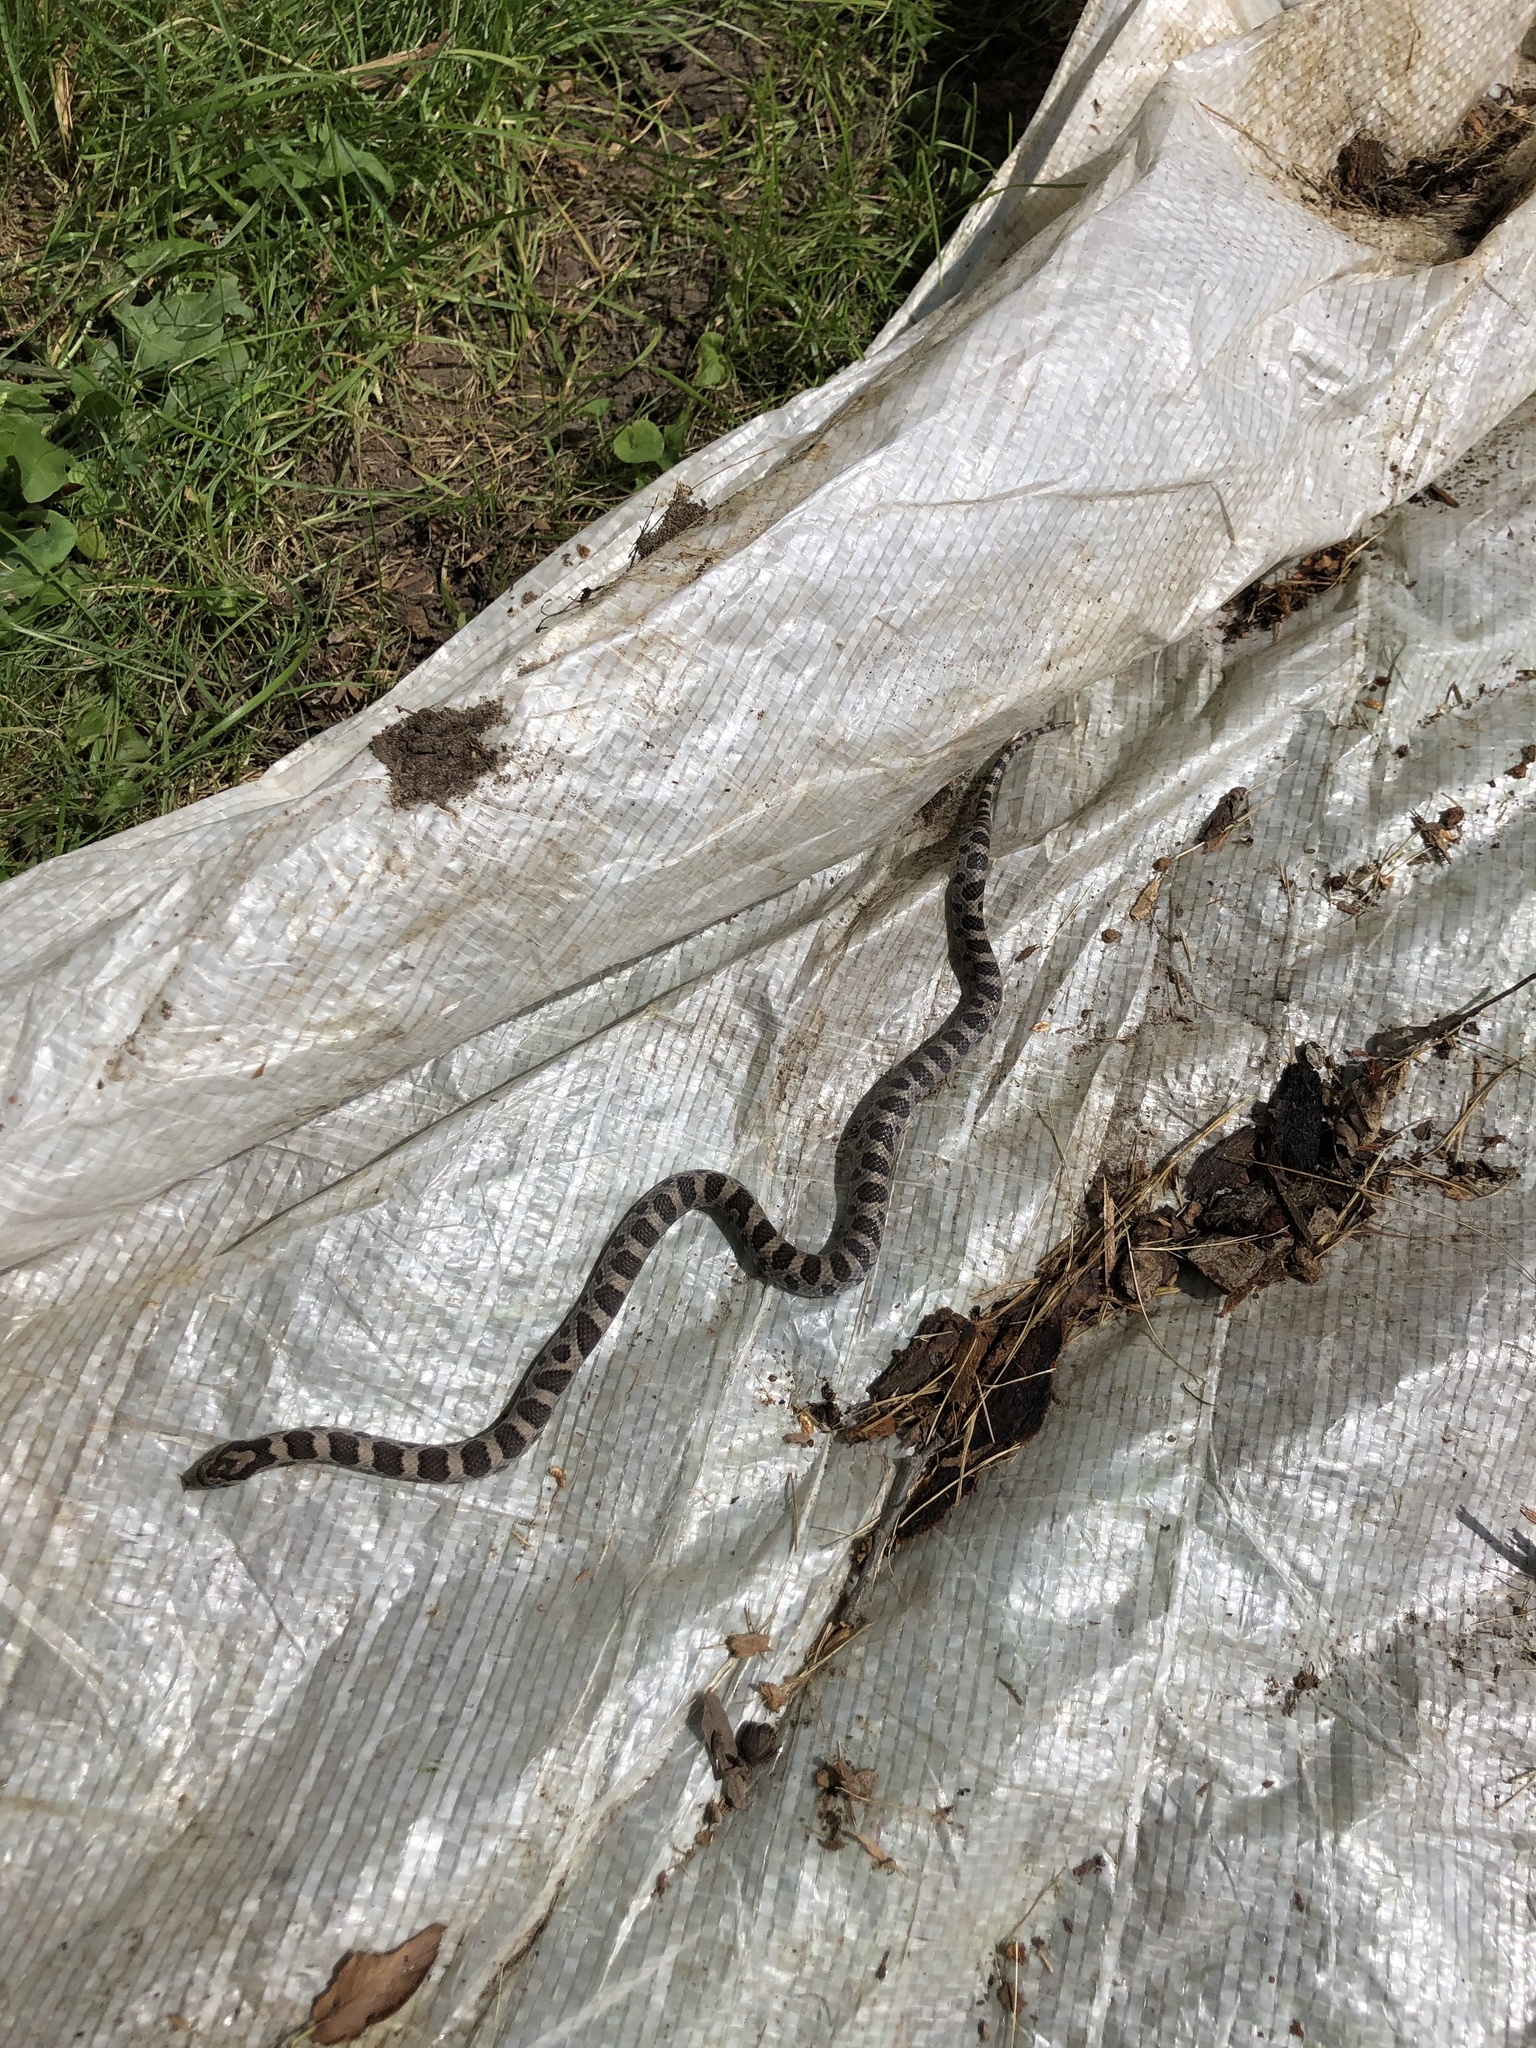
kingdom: Animalia
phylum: Chordata
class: Squamata
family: Colubridae
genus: Lampropeltis
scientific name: Lampropeltis triangulum
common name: Eastern milksnake
